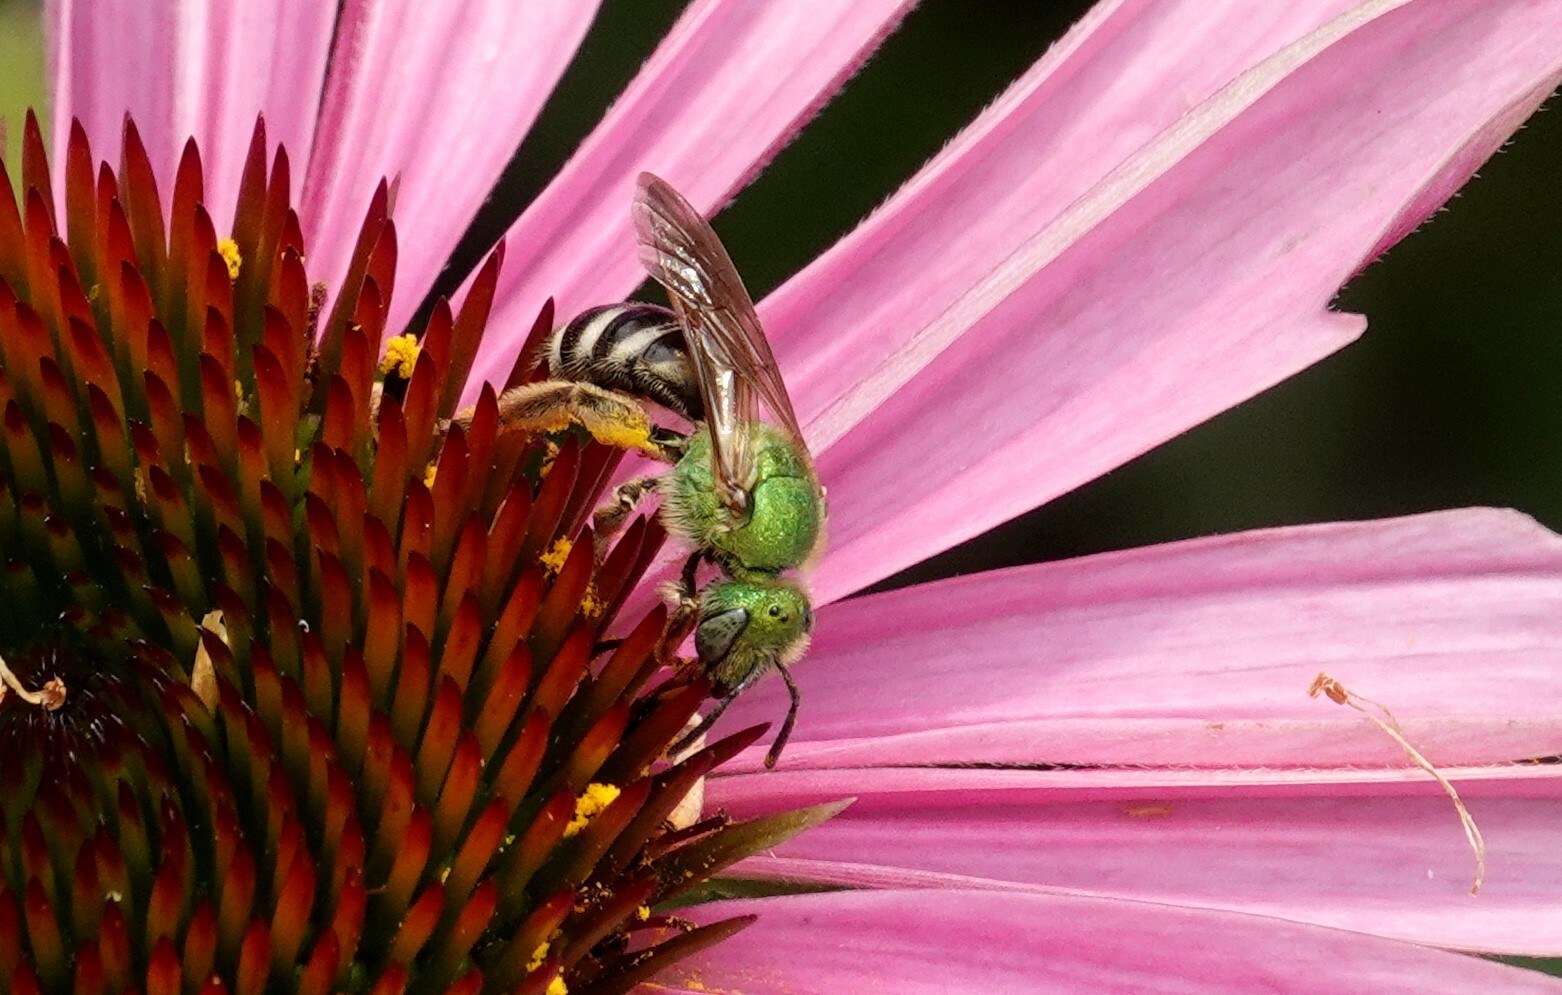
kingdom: Animalia
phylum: Arthropoda
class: Insecta
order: Hymenoptera
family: Halictidae
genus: Agapostemon
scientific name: Agapostemon virescens
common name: Bicolored striped sweat bee
